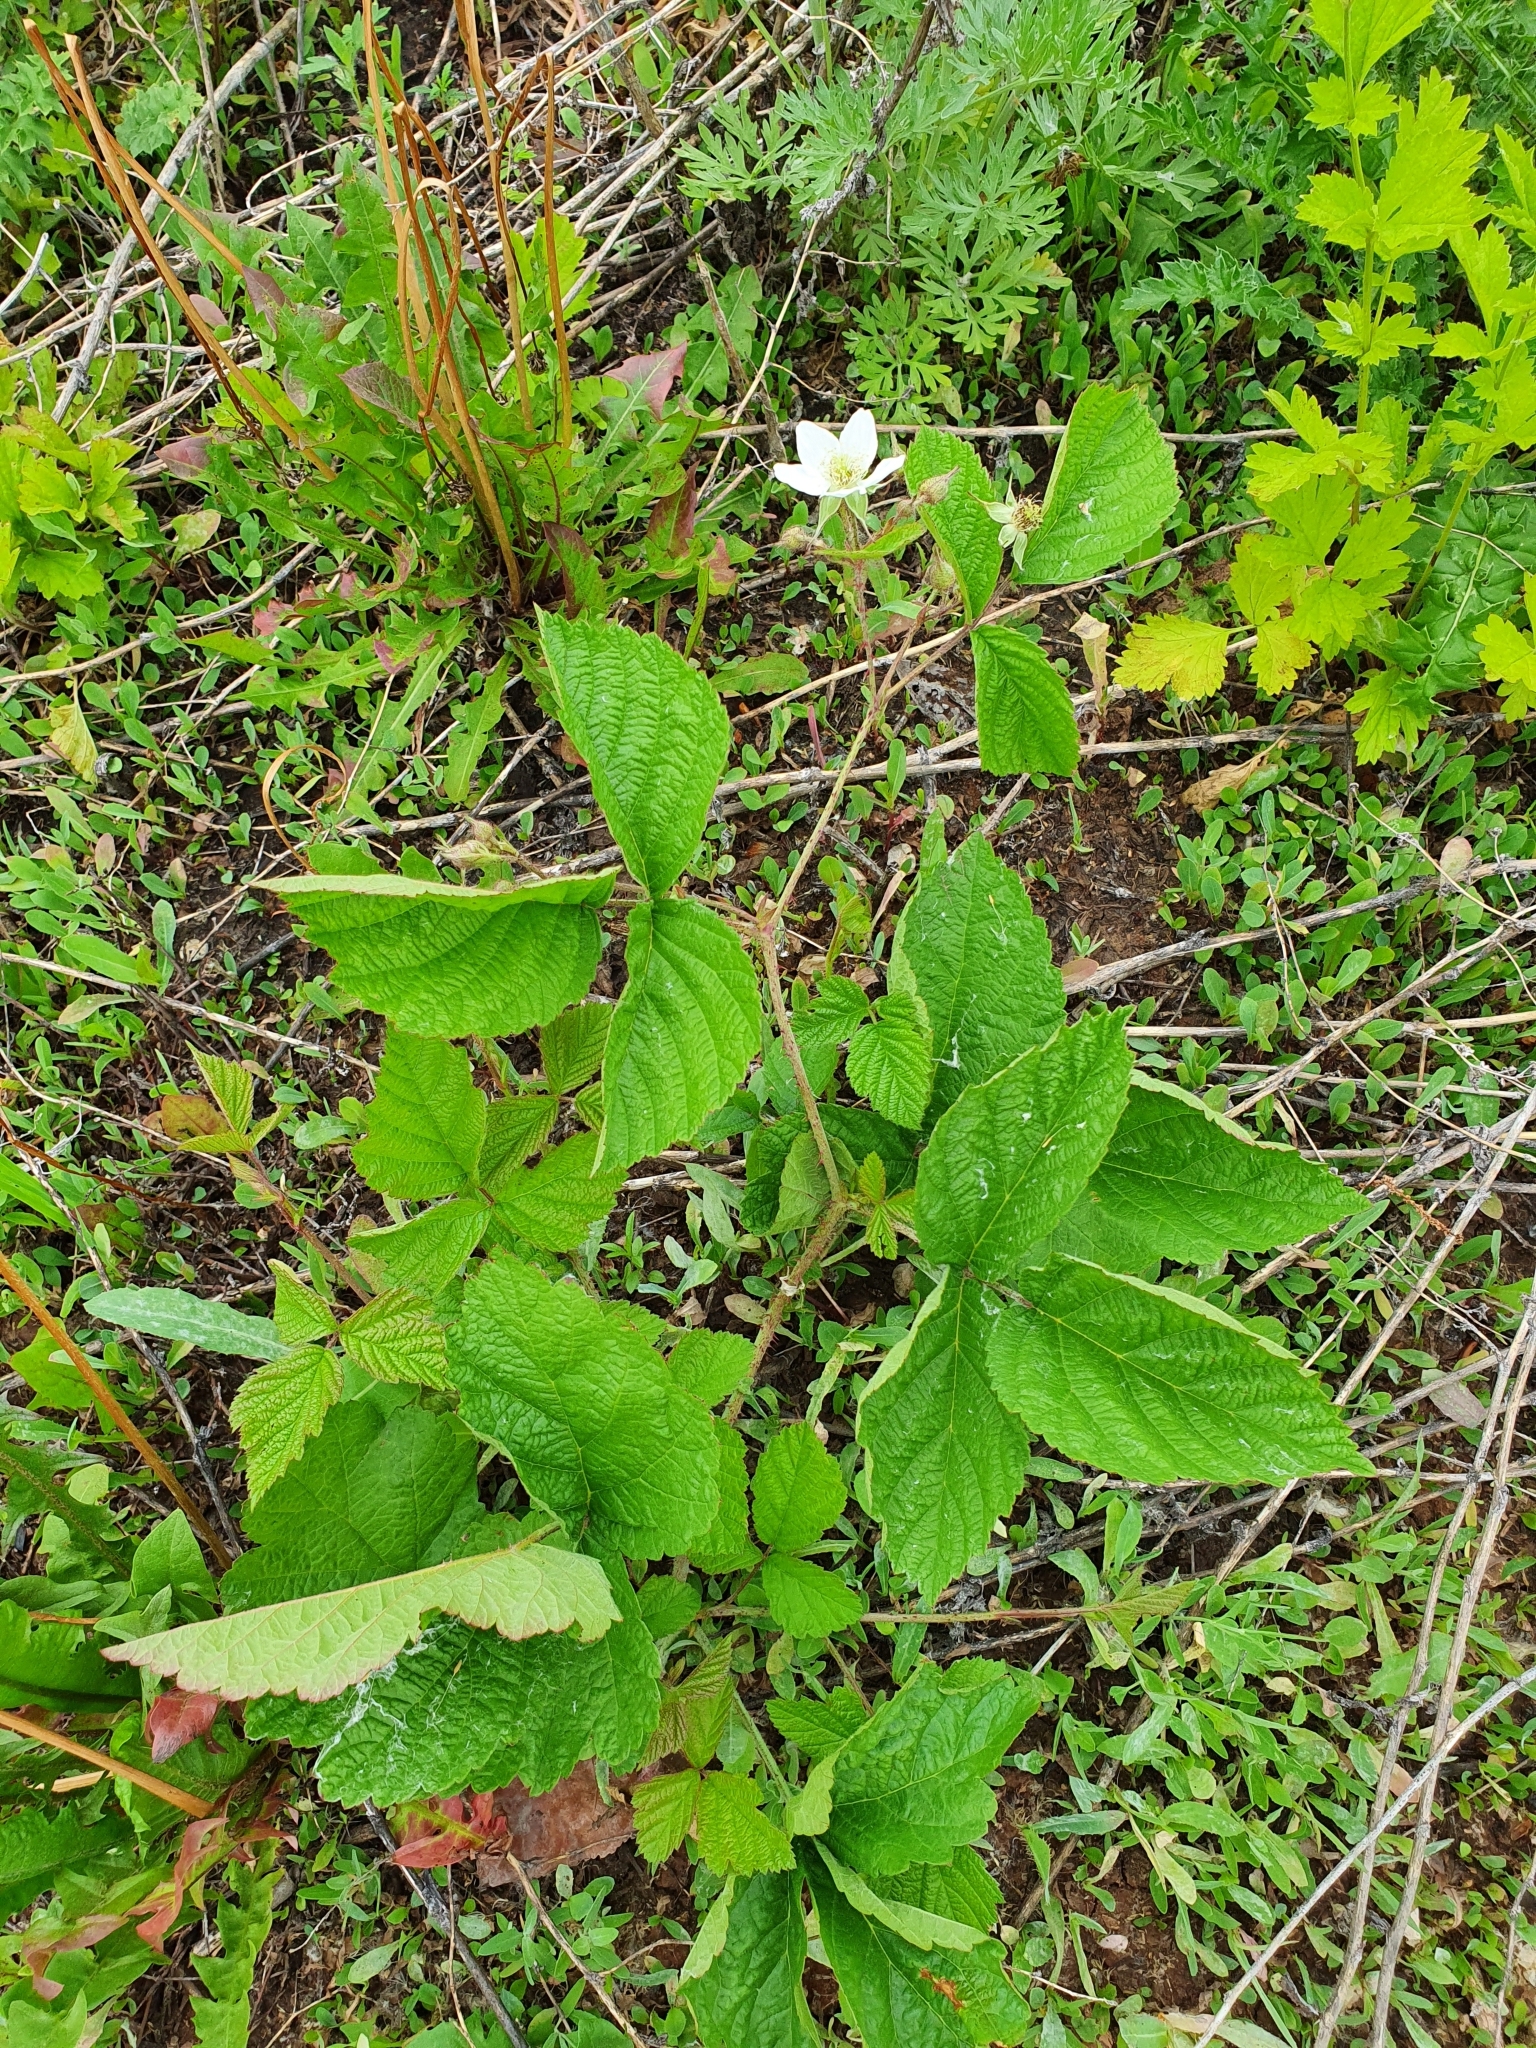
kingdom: Plantae
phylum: Tracheophyta
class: Magnoliopsida
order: Rosales
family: Rosaceae
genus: Rubus
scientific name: Rubus caesius
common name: Dewberry
